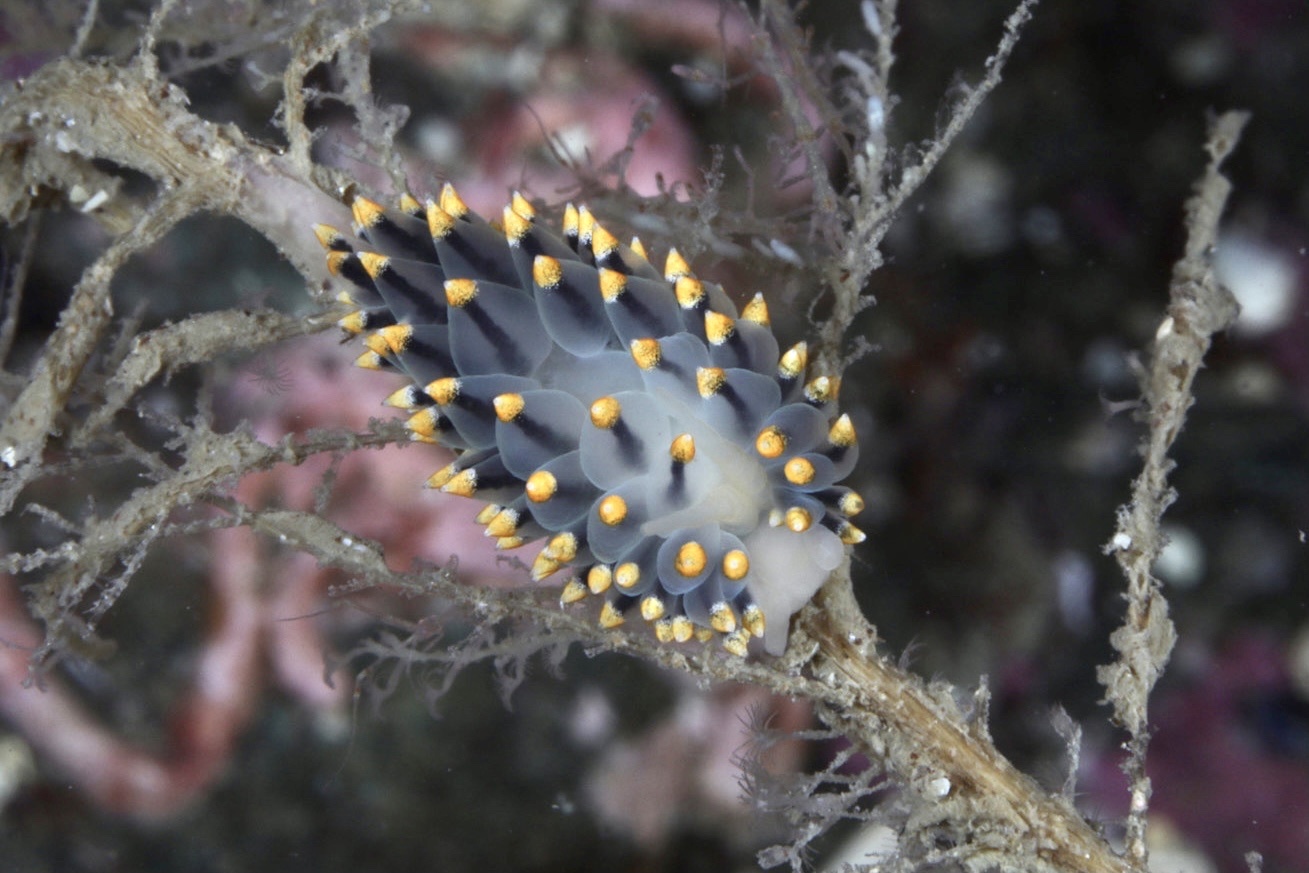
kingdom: Animalia
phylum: Mollusca
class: Gastropoda
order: Nudibranchia
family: Eubranchidae
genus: Eubranchus
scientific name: Eubranchus tricolor
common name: Painted balloon aeolis
